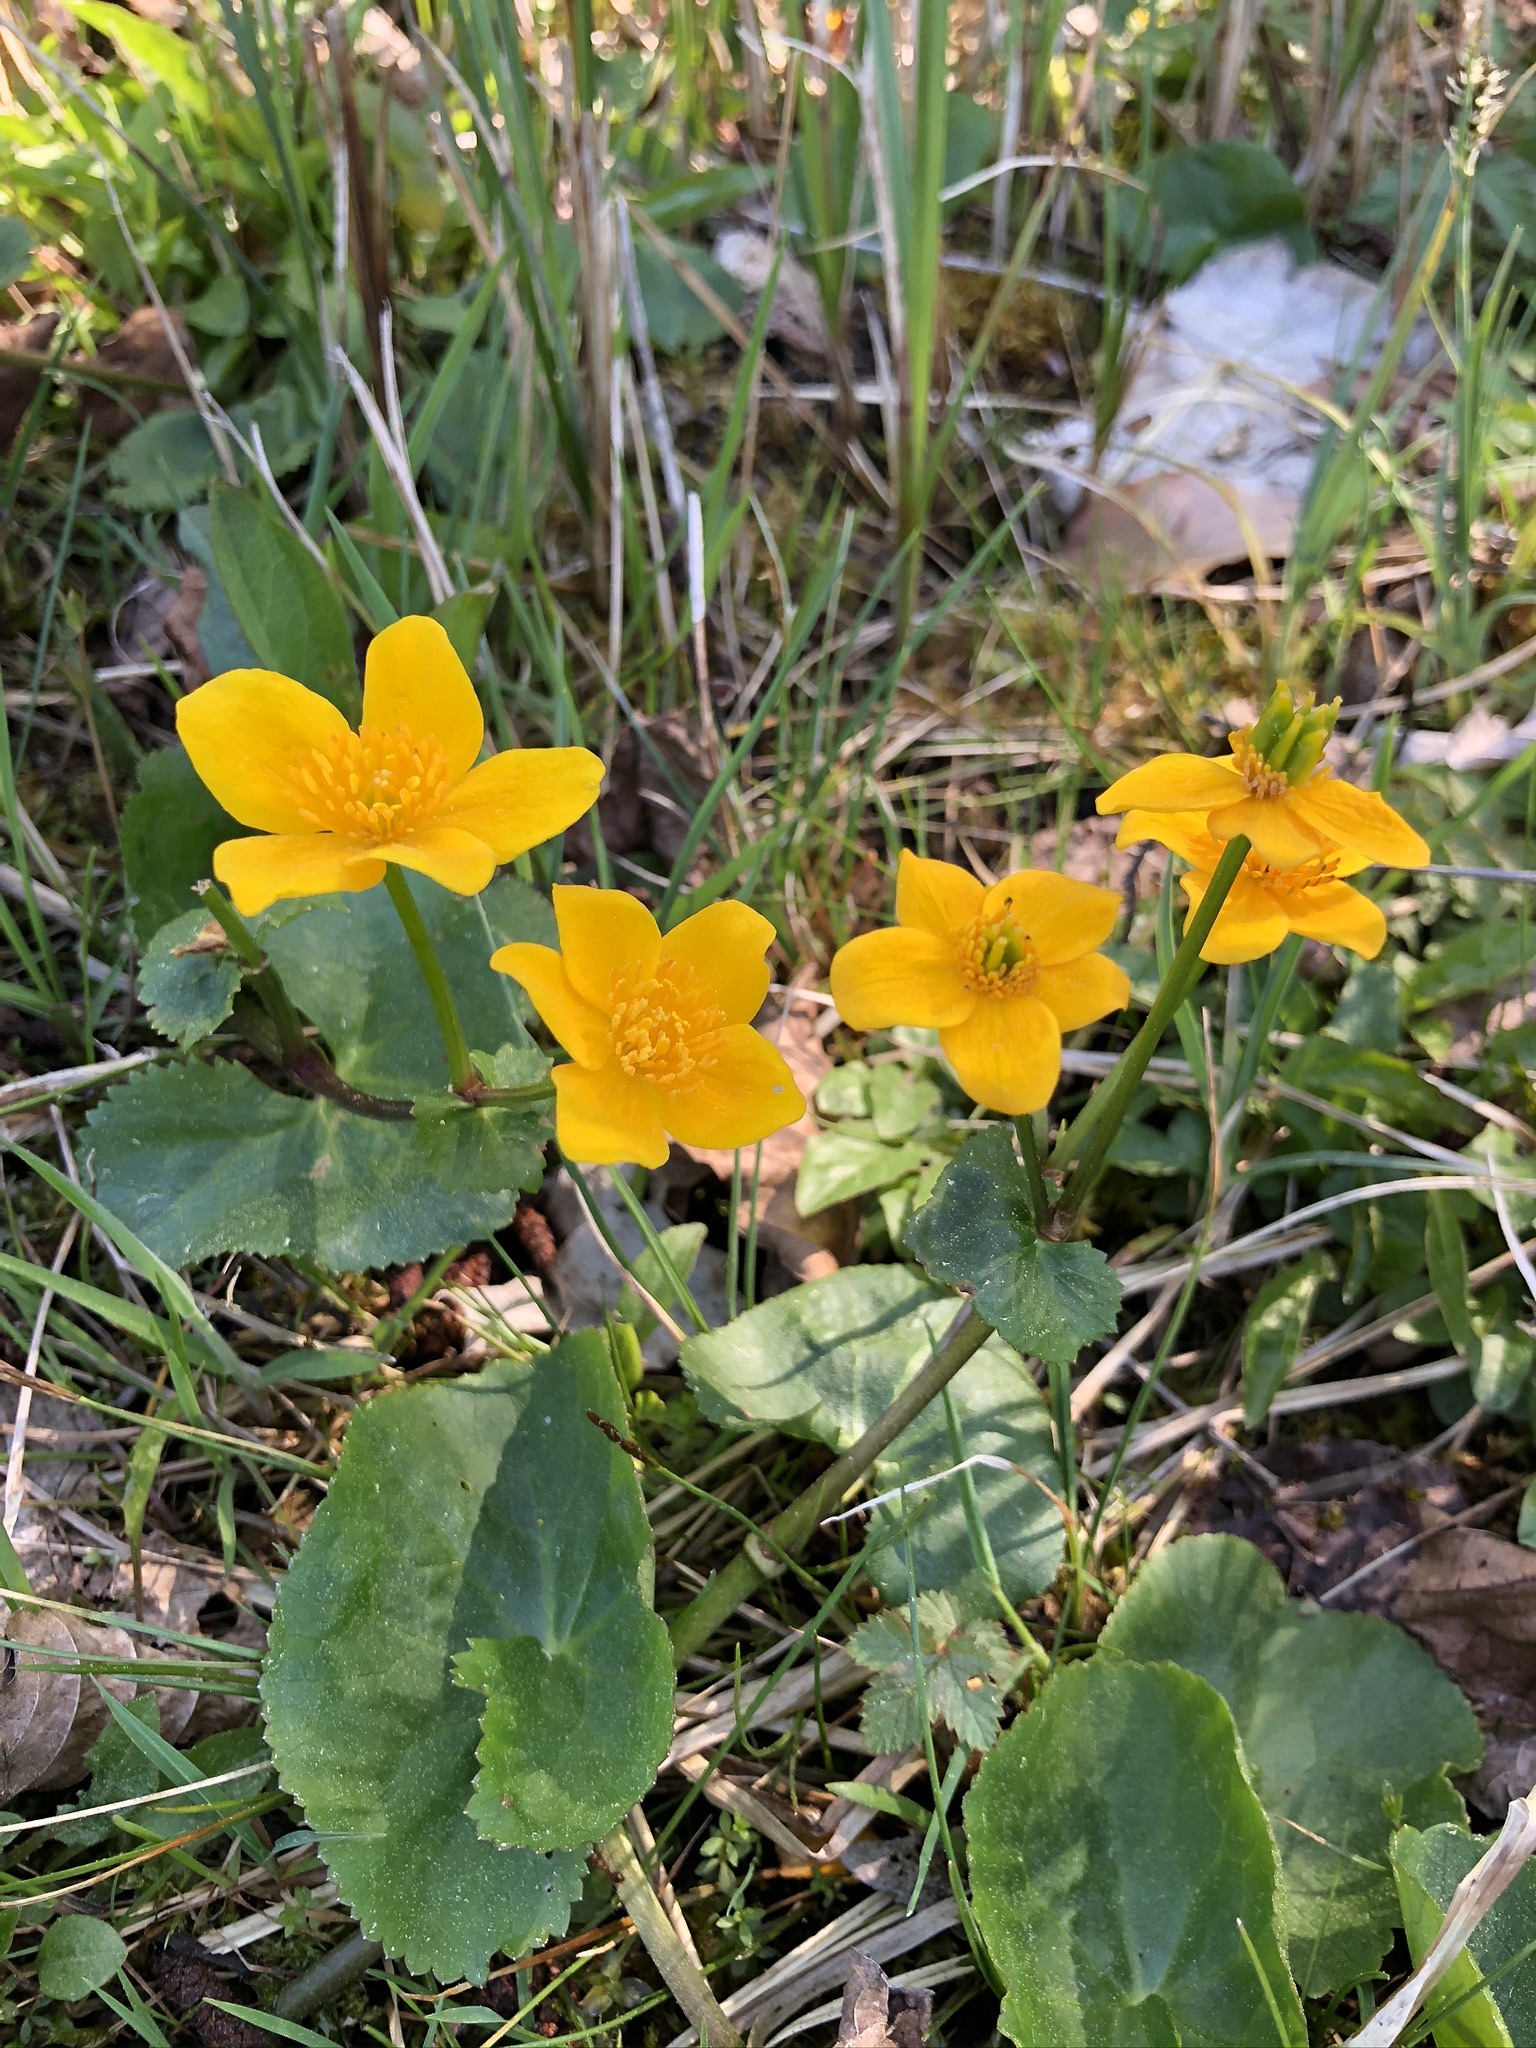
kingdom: Plantae
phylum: Tracheophyta
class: Magnoliopsida
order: Ranunculales
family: Ranunculaceae
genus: Caltha
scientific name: Caltha palustris
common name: Marsh marigold
